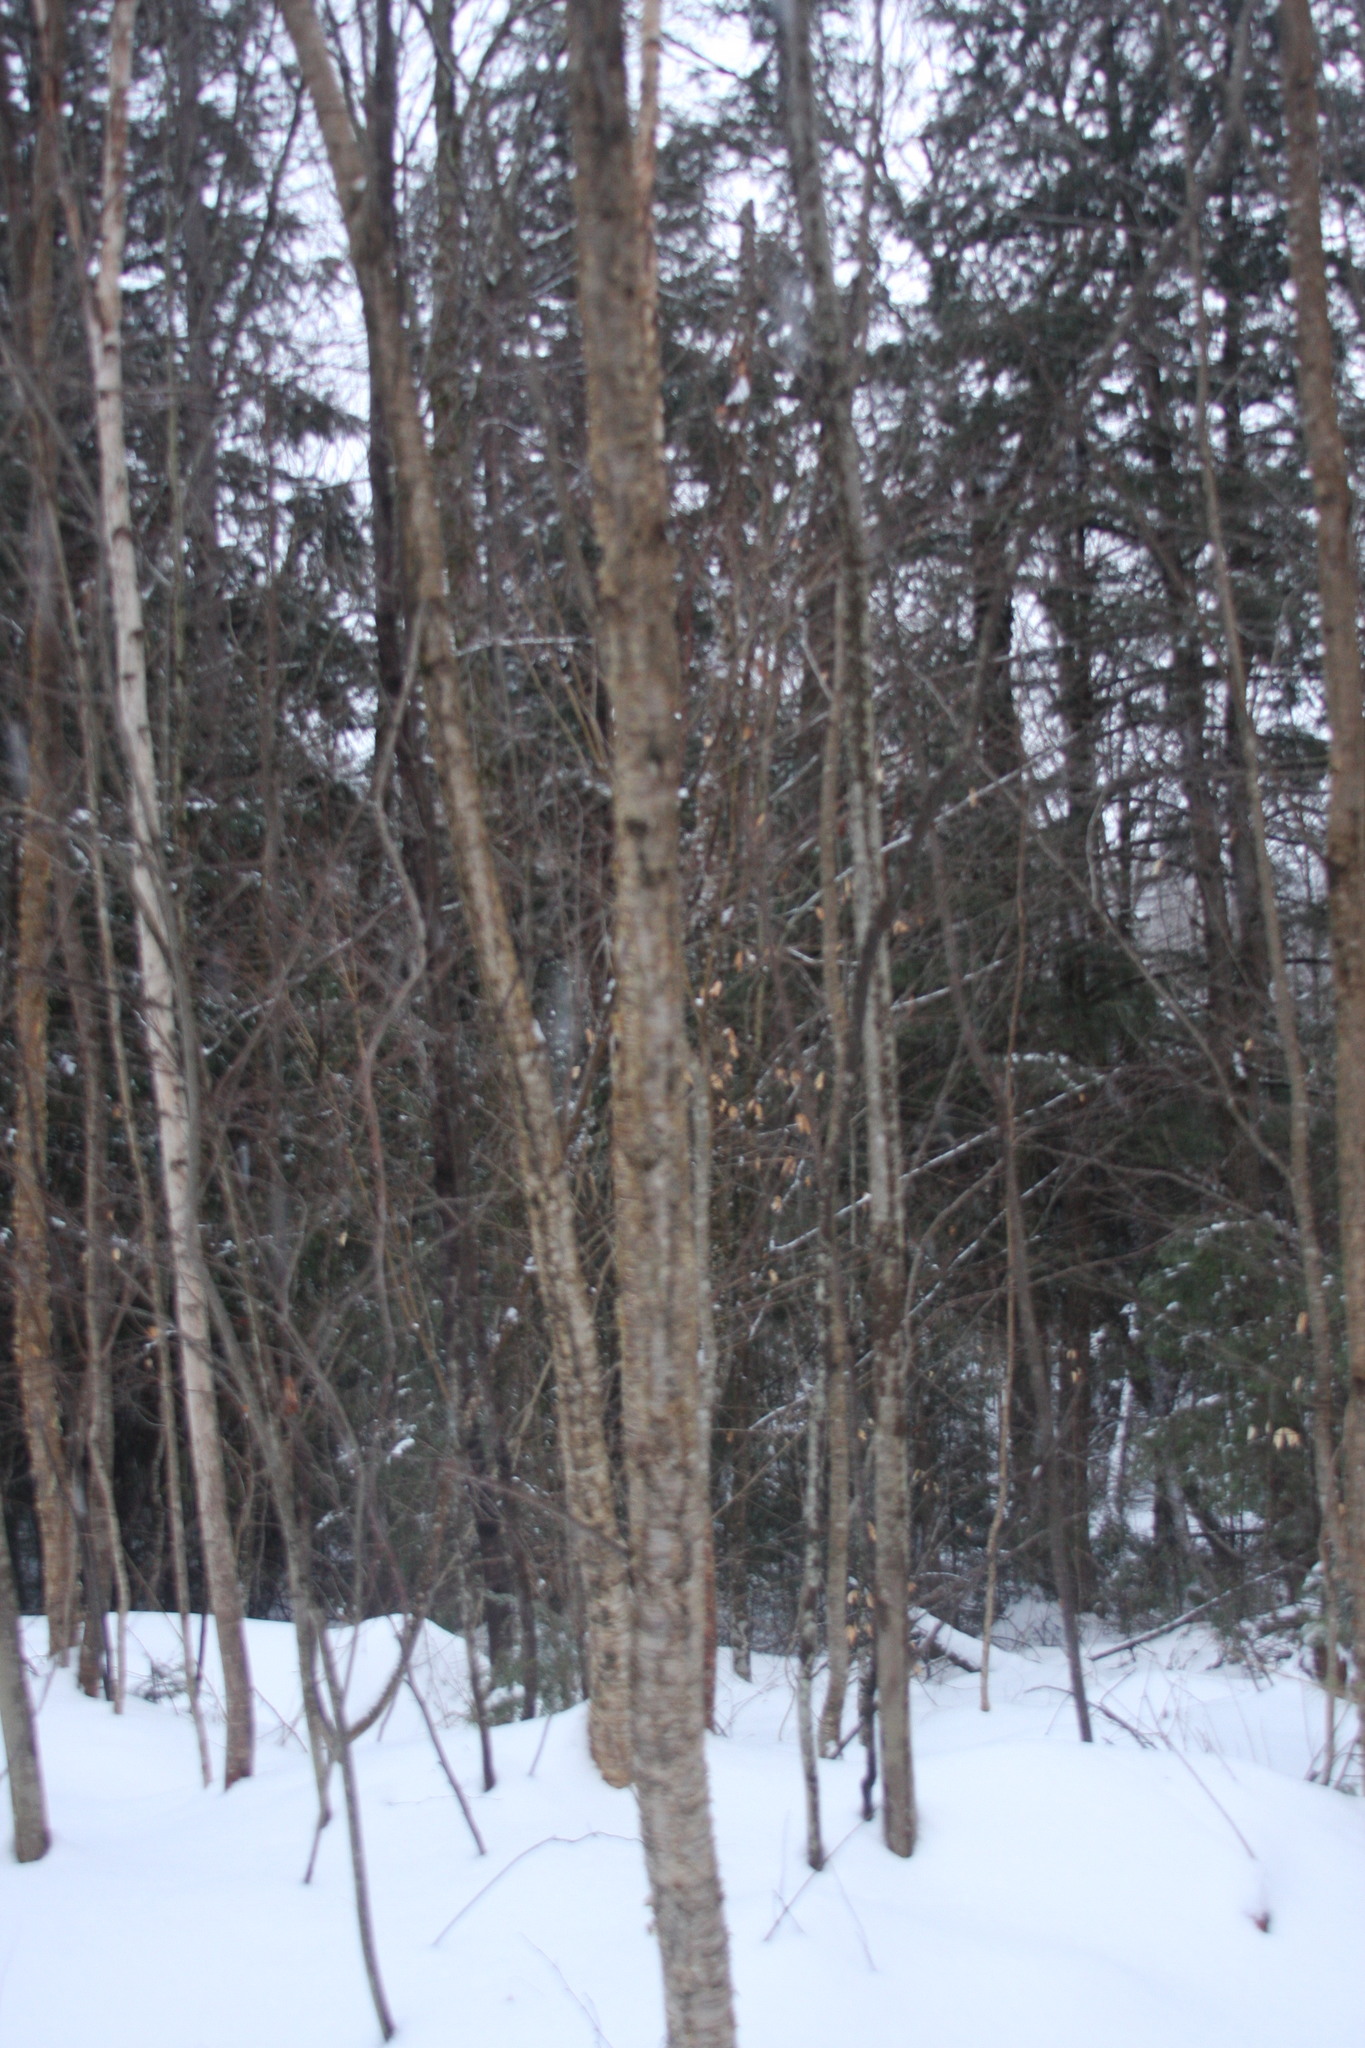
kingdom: Plantae
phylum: Tracheophyta
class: Magnoliopsida
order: Fagales
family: Betulaceae
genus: Betula
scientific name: Betula alleghaniensis
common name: Yellow birch
